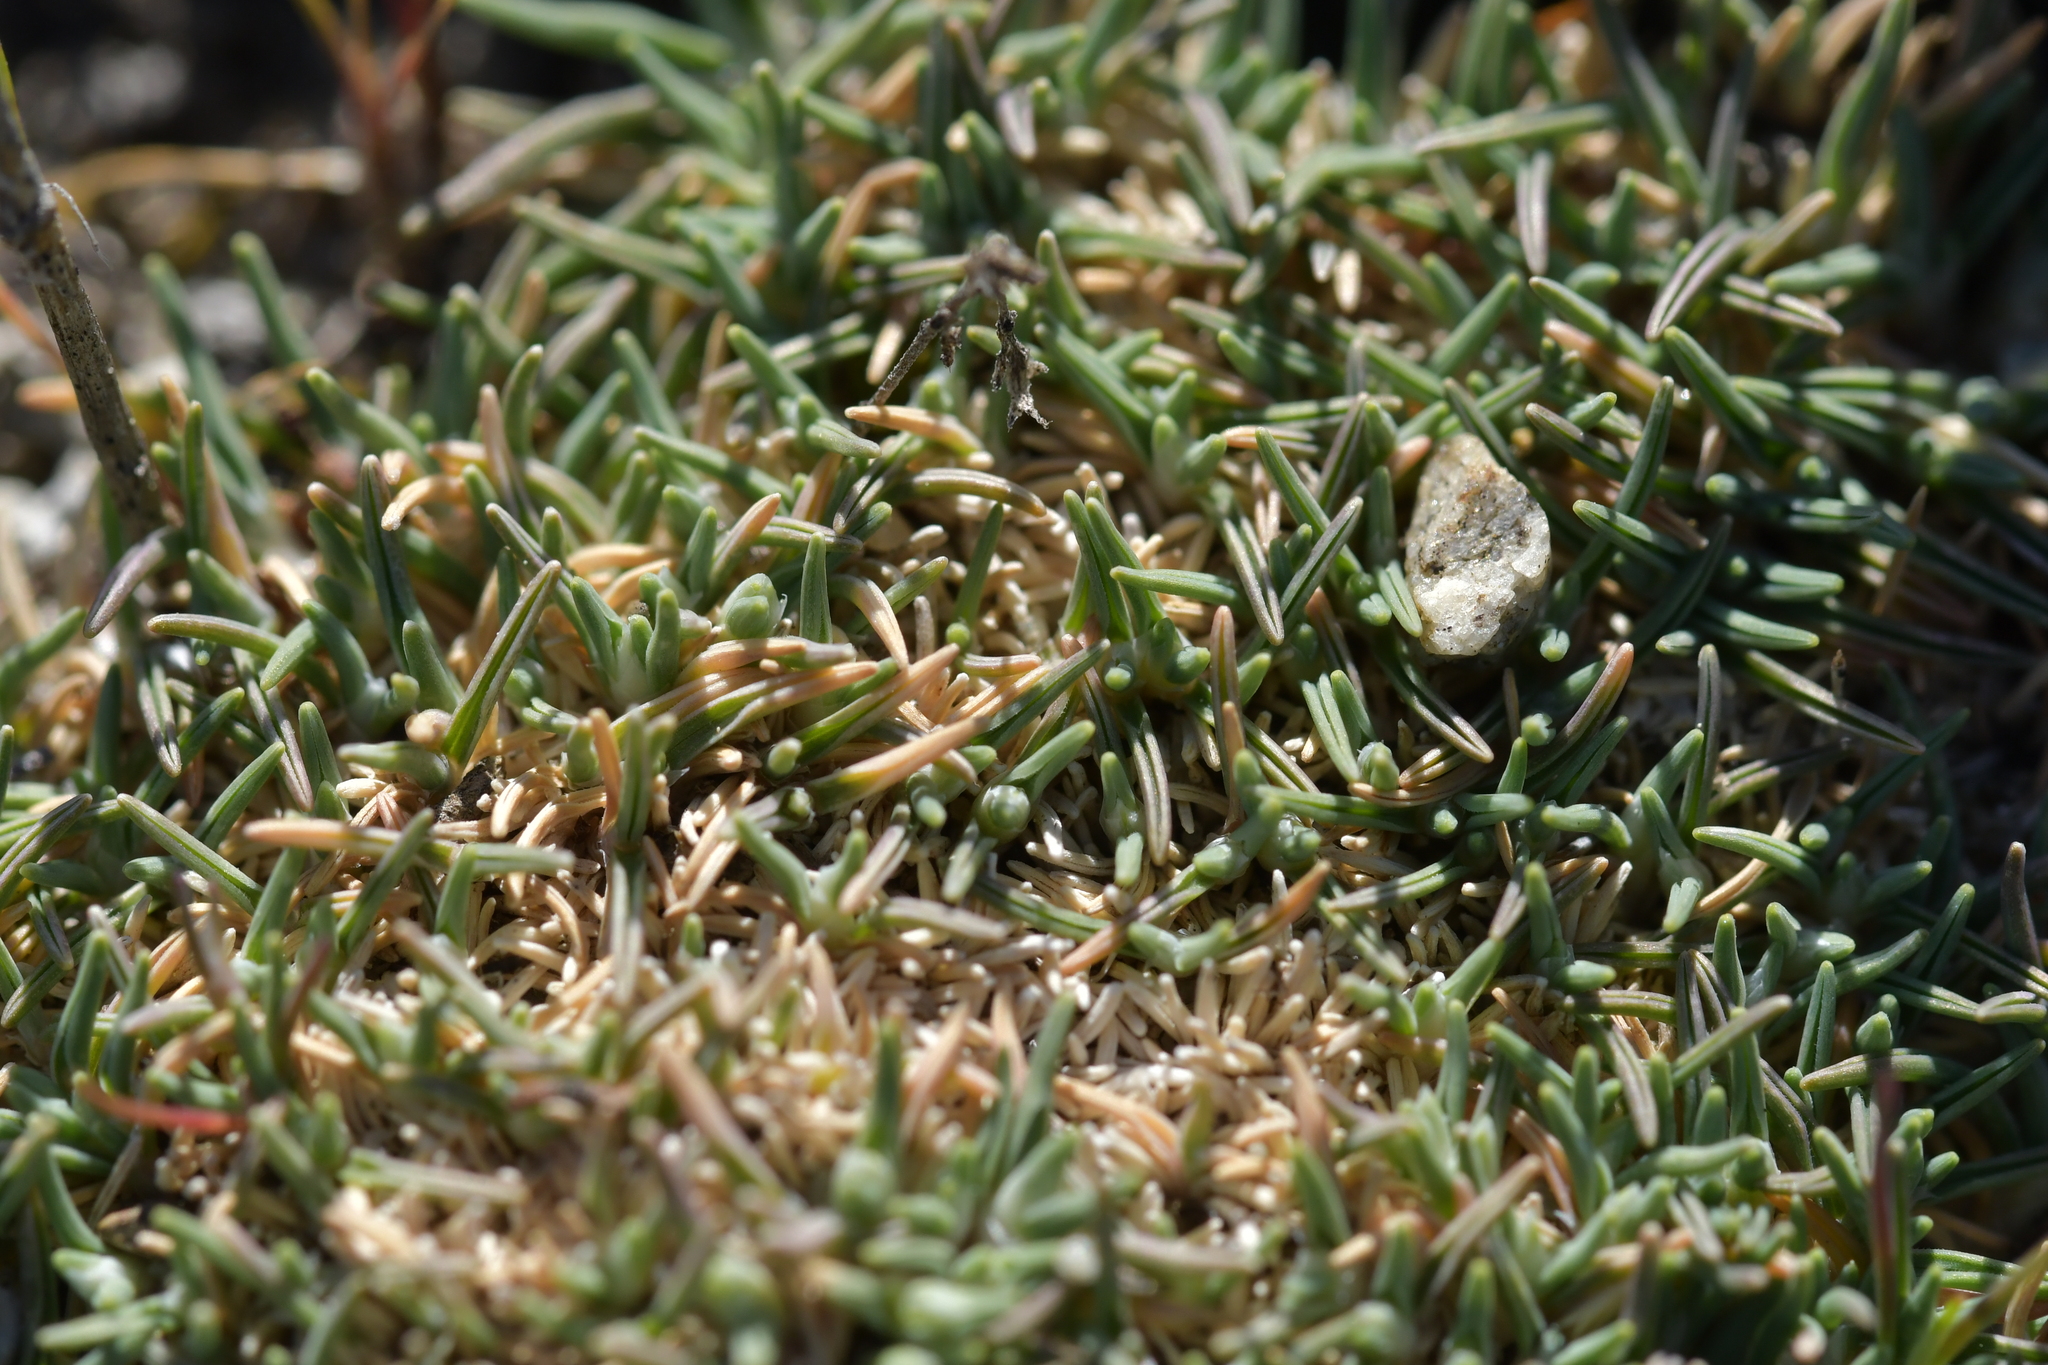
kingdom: Plantae
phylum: Tracheophyta
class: Liliopsida
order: Poales
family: Poaceae
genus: Agrostis
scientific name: Agrostis muscosa
